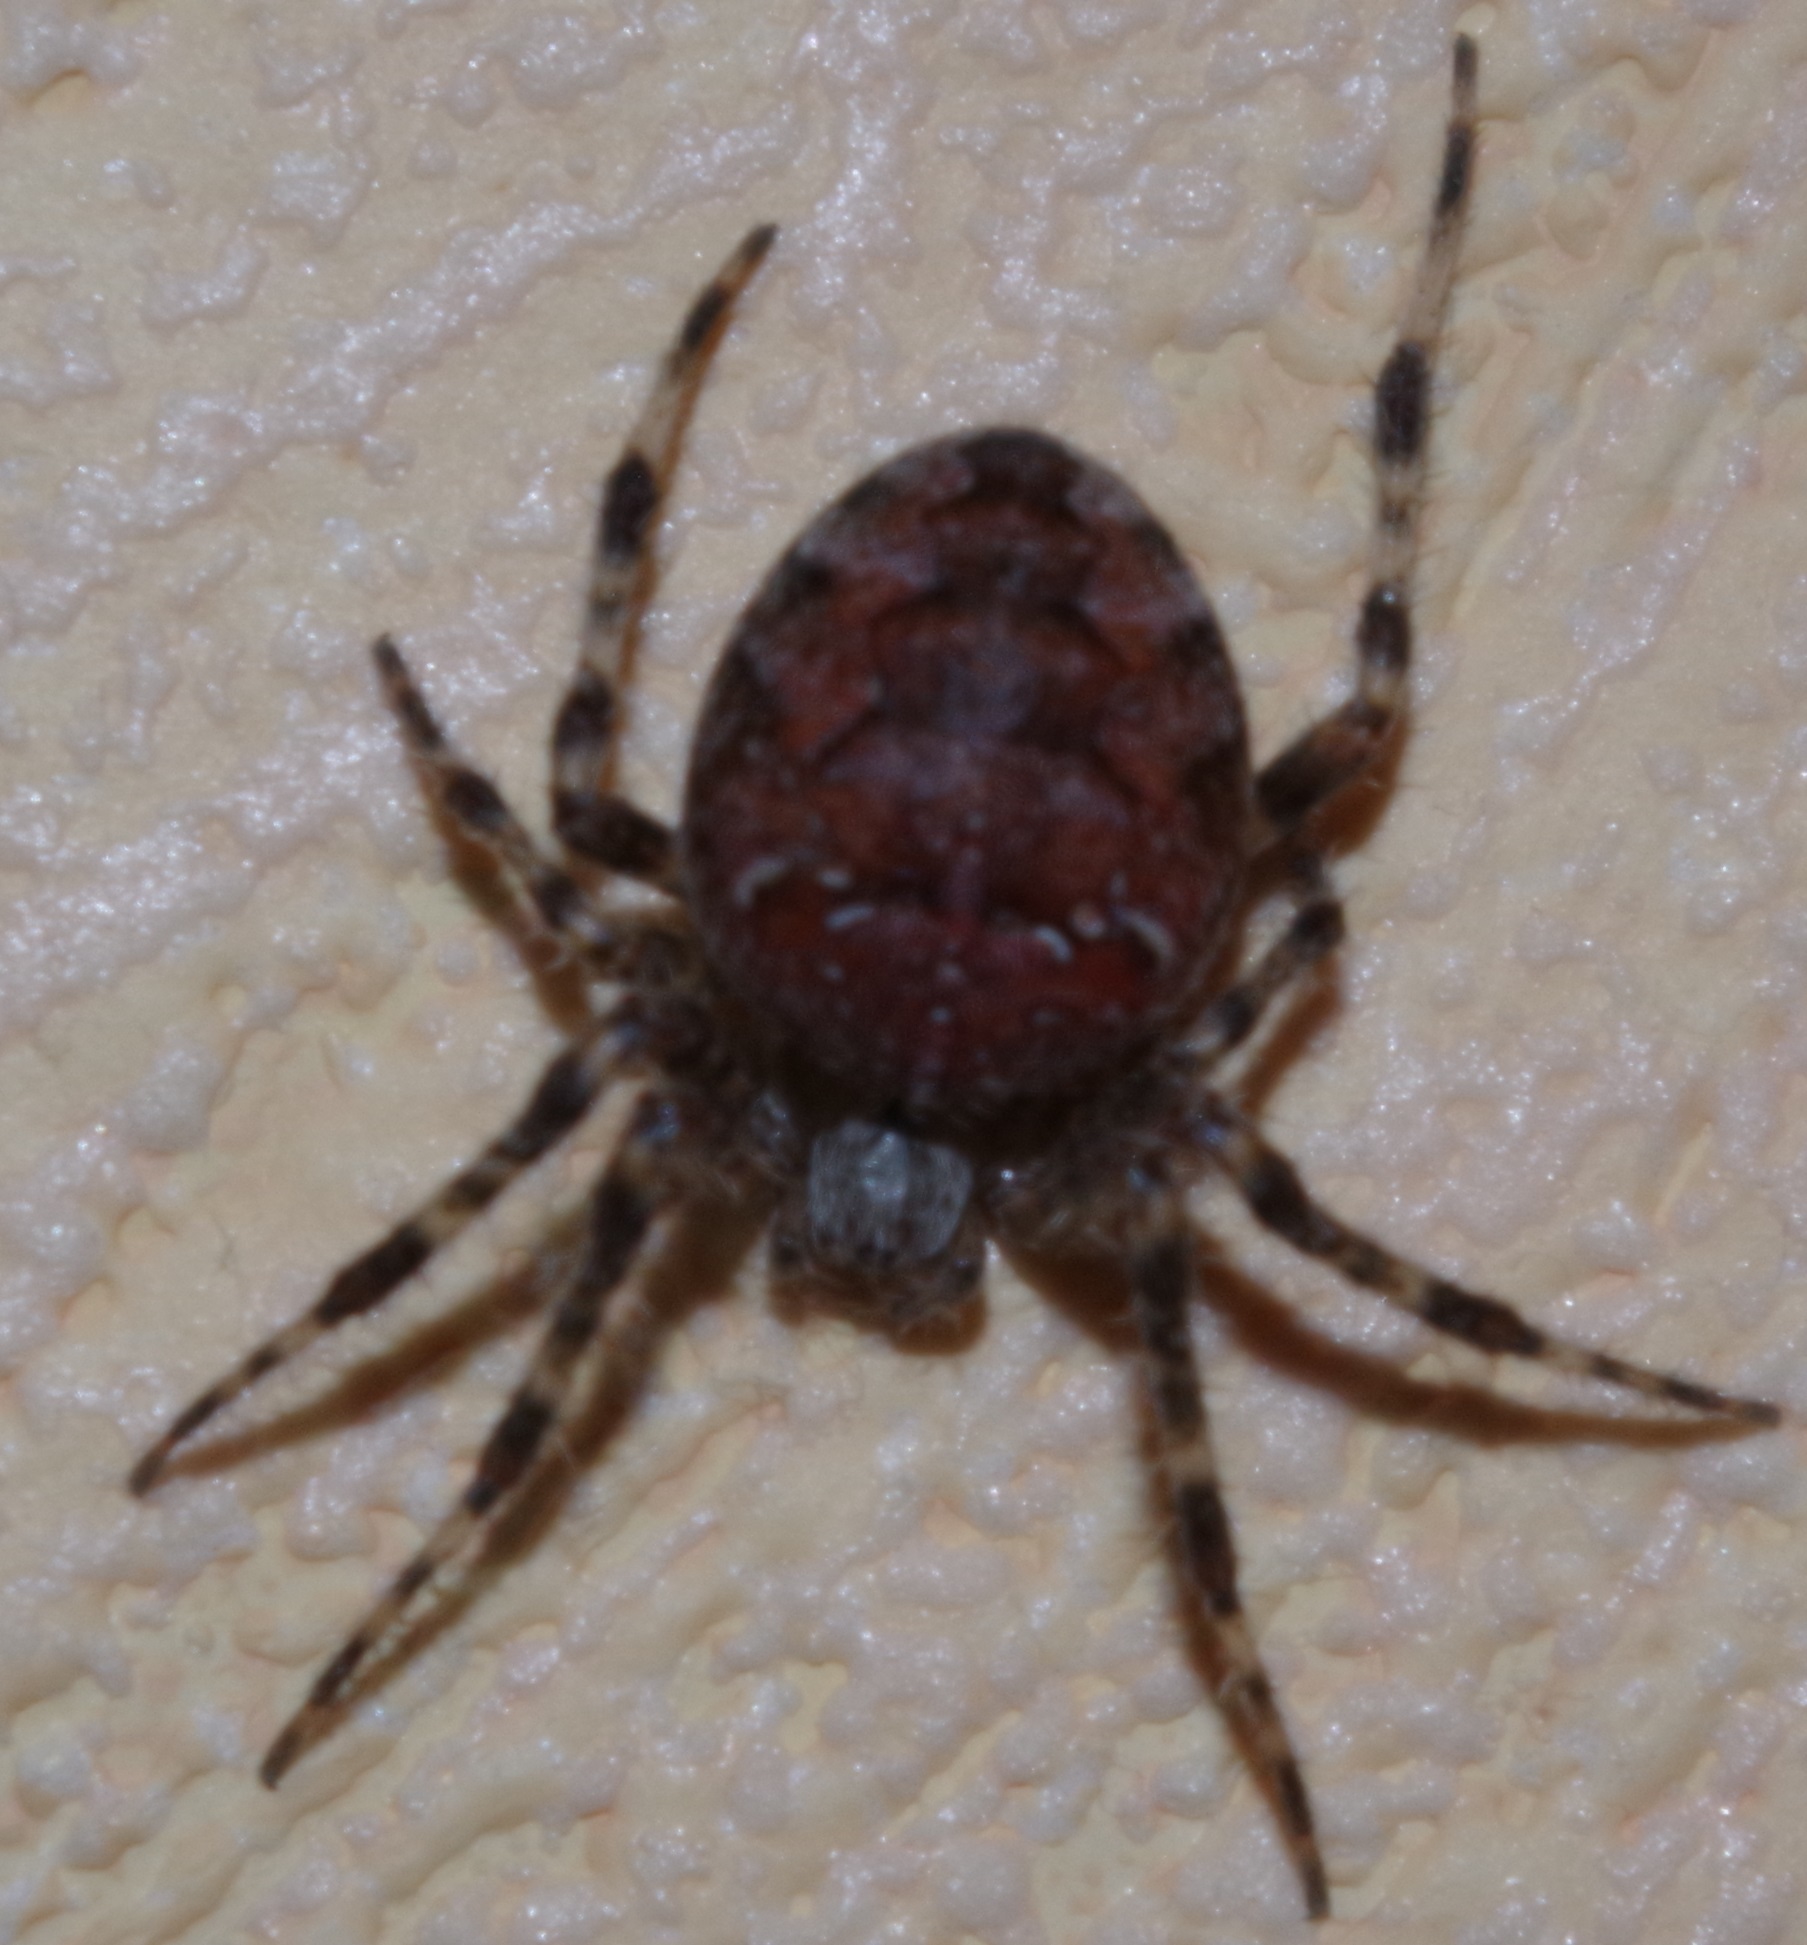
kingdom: Animalia
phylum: Arthropoda
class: Arachnida
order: Araneae
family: Araneidae
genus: Araneus
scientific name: Araneus diadematus
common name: Cross orbweaver
